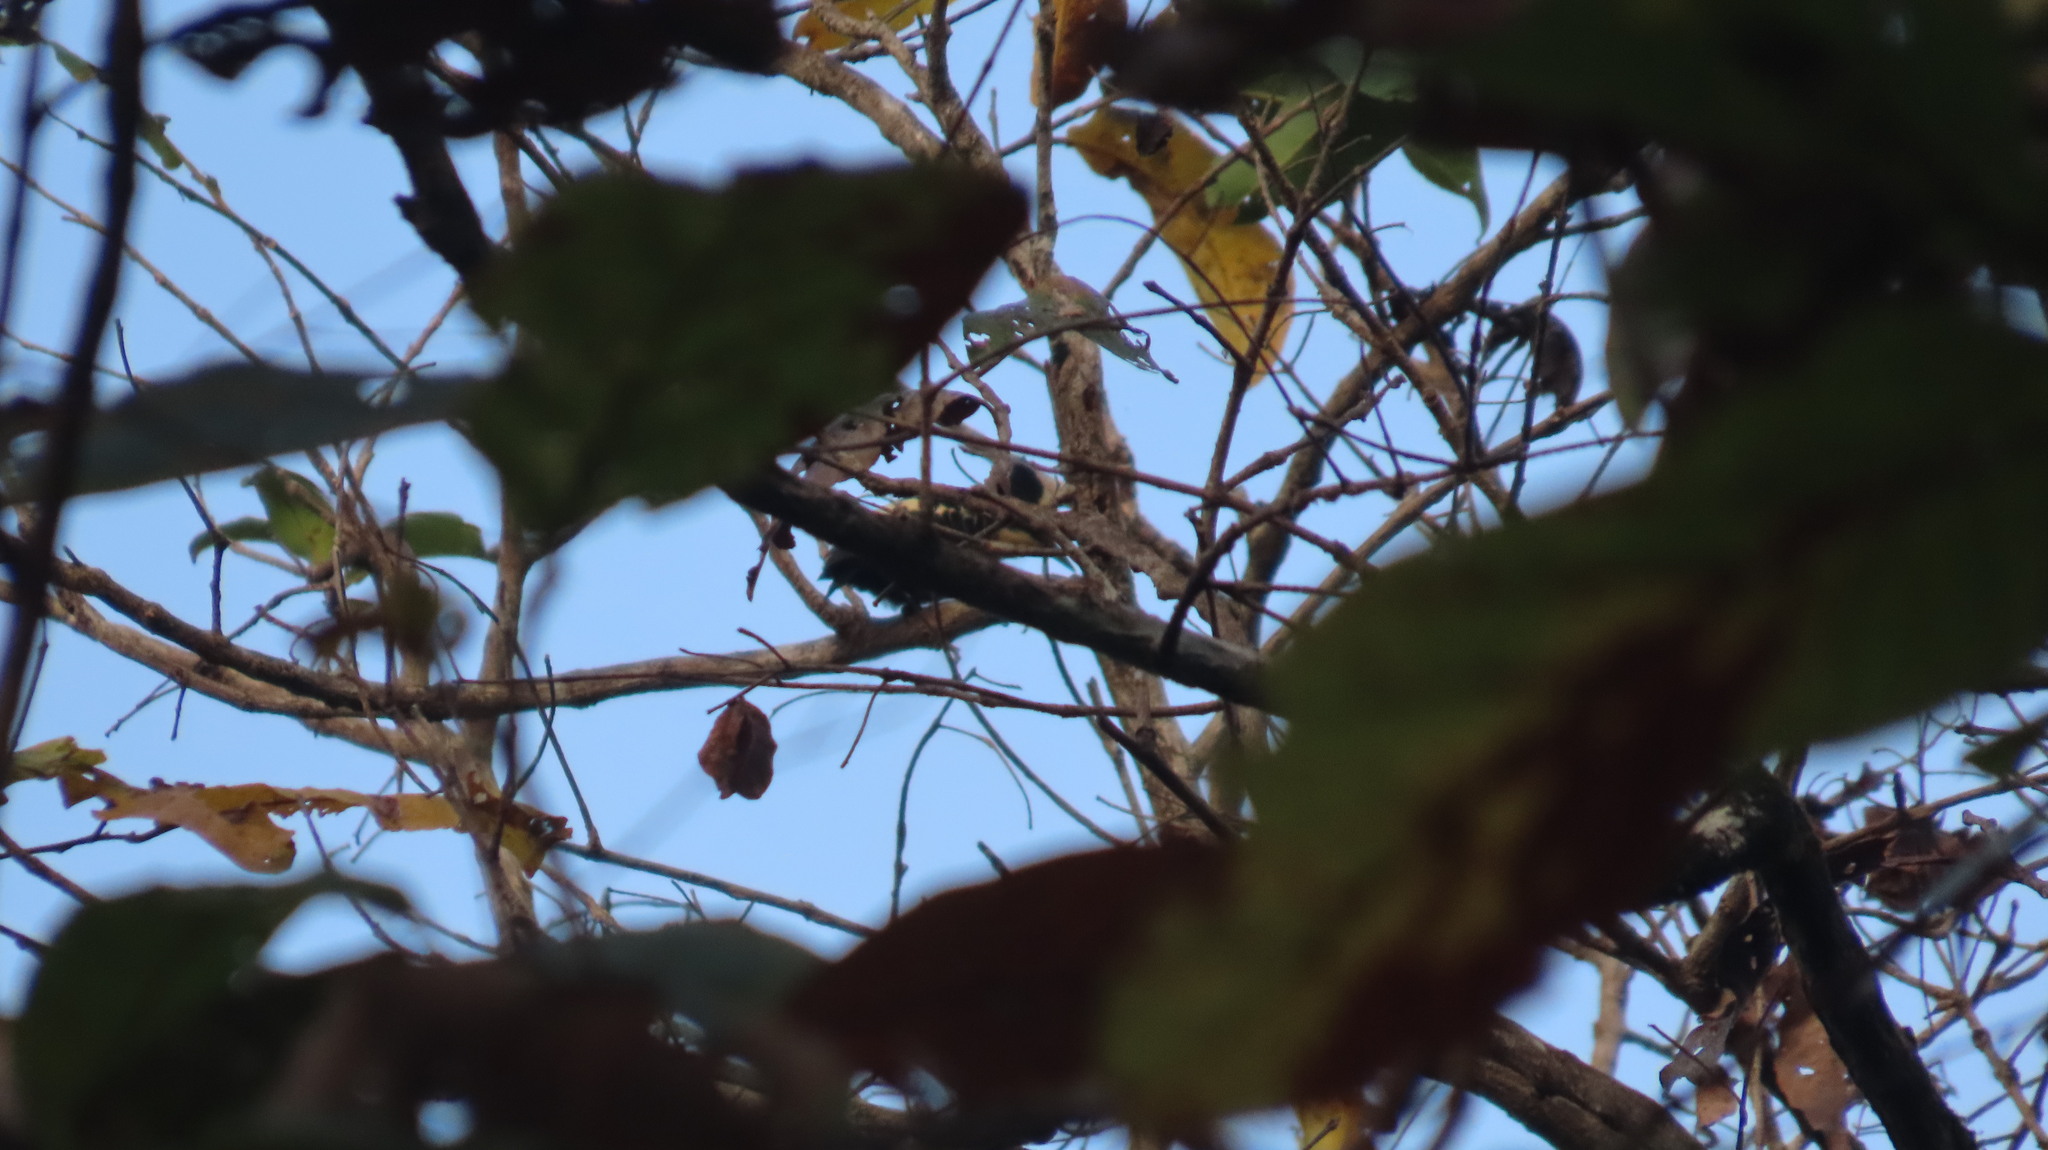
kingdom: Animalia
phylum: Chordata
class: Aves
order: Piciformes
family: Picidae
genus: Hemicircus
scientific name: Hemicircus canente
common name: Heart-spotted woodpecker
